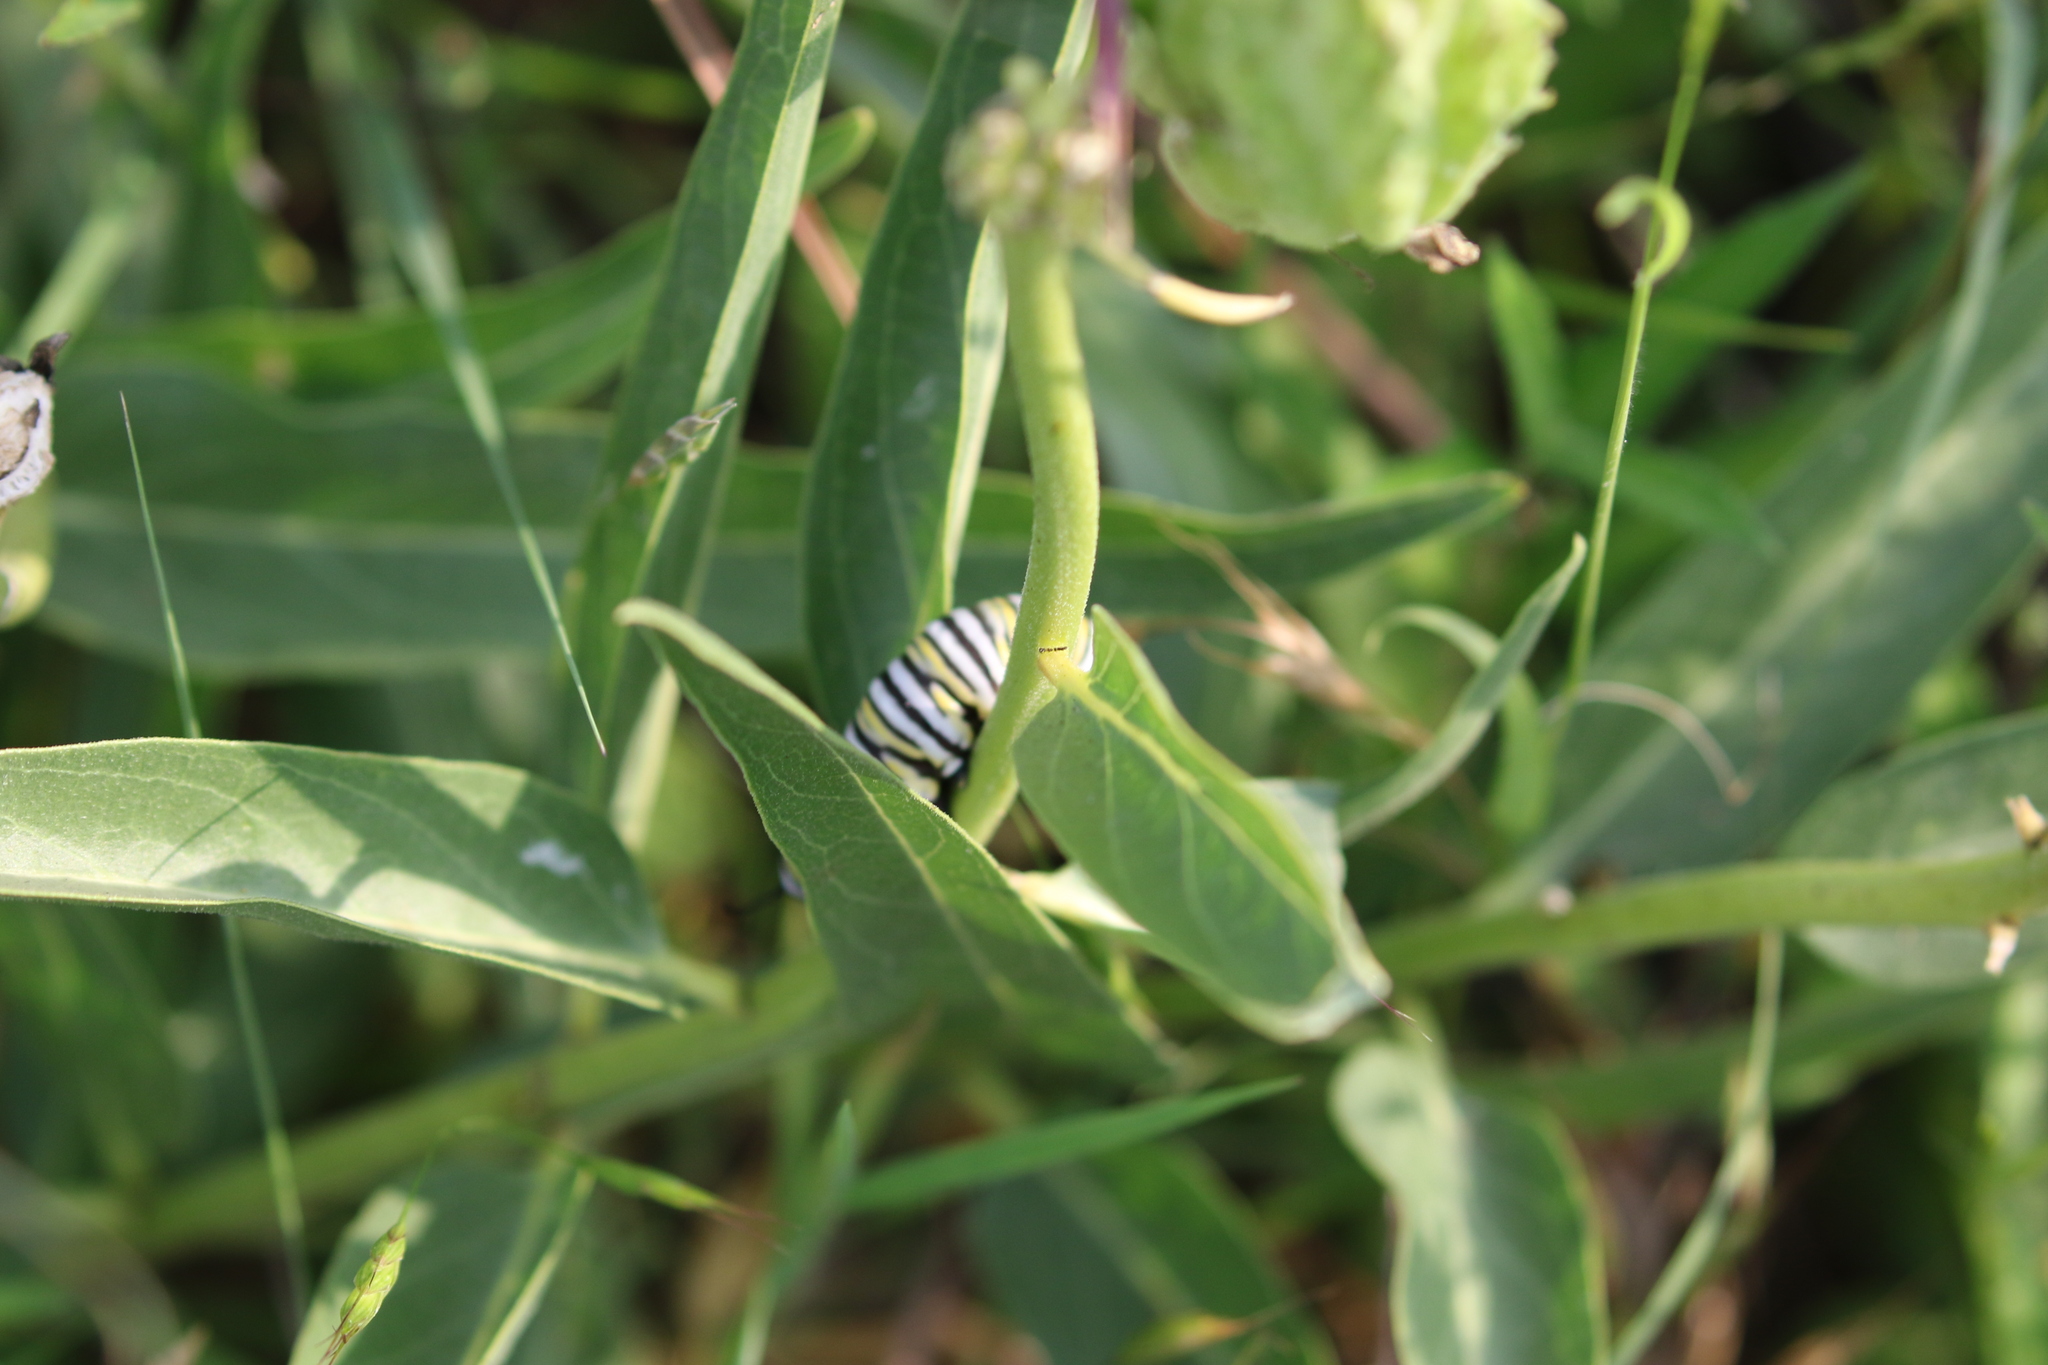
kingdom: Animalia
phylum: Arthropoda
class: Insecta
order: Lepidoptera
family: Nymphalidae
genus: Danaus
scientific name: Danaus plexippus
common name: Monarch
